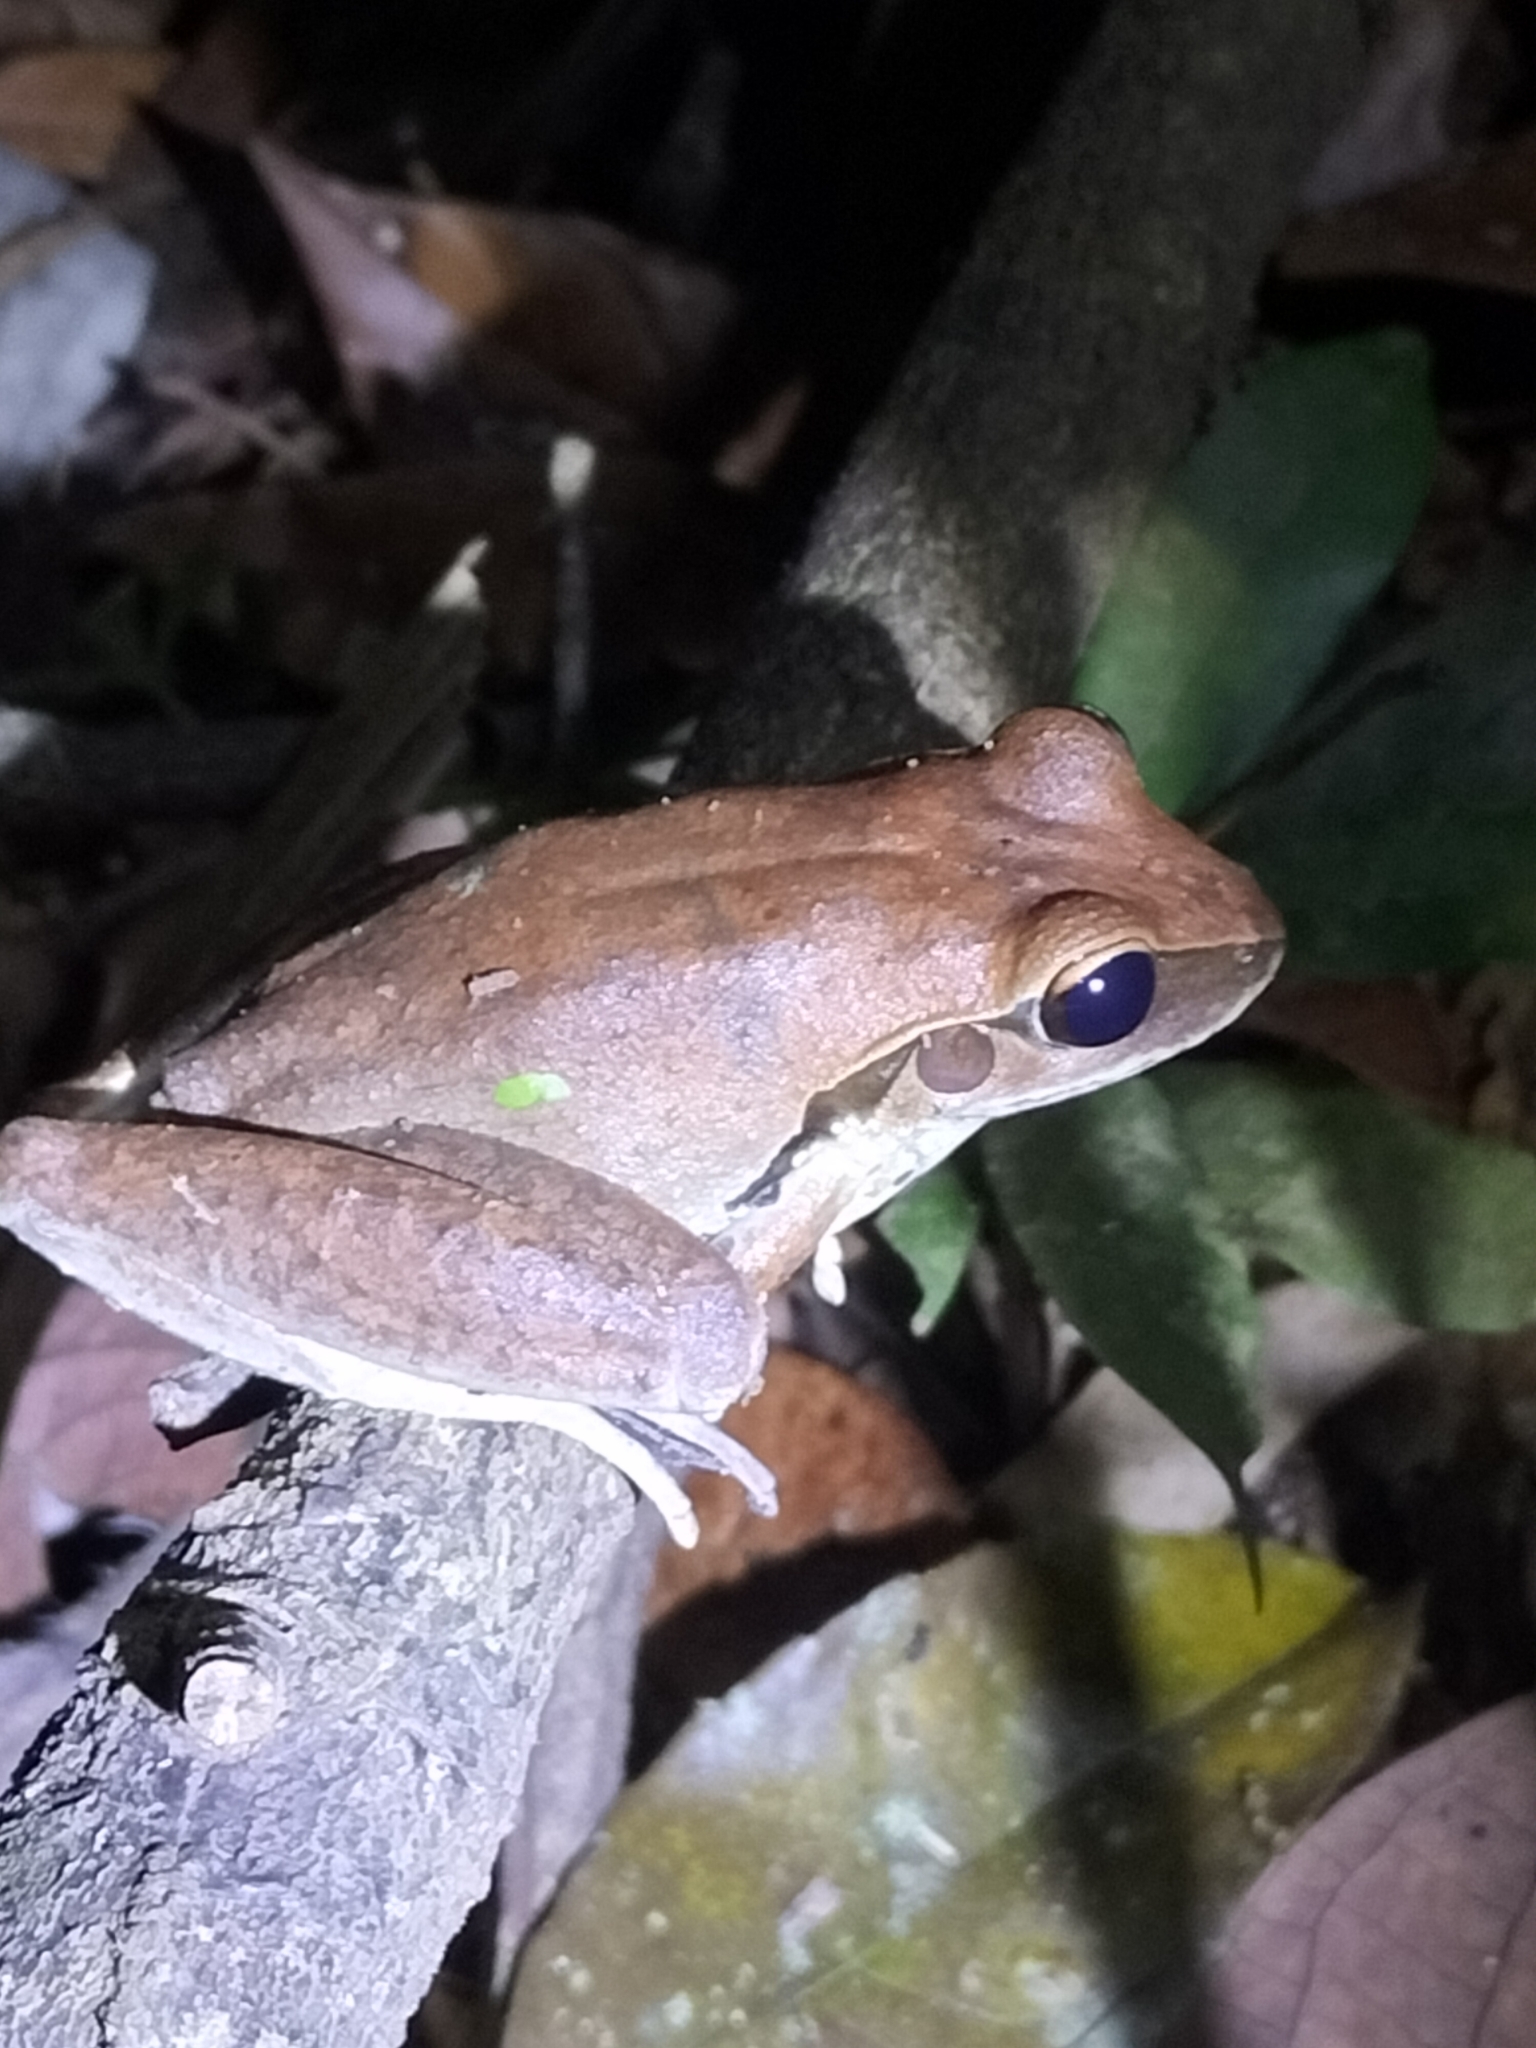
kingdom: Animalia
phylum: Chordata
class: Amphibia
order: Anura
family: Hylidae
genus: Ranoidea
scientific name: Ranoidea
